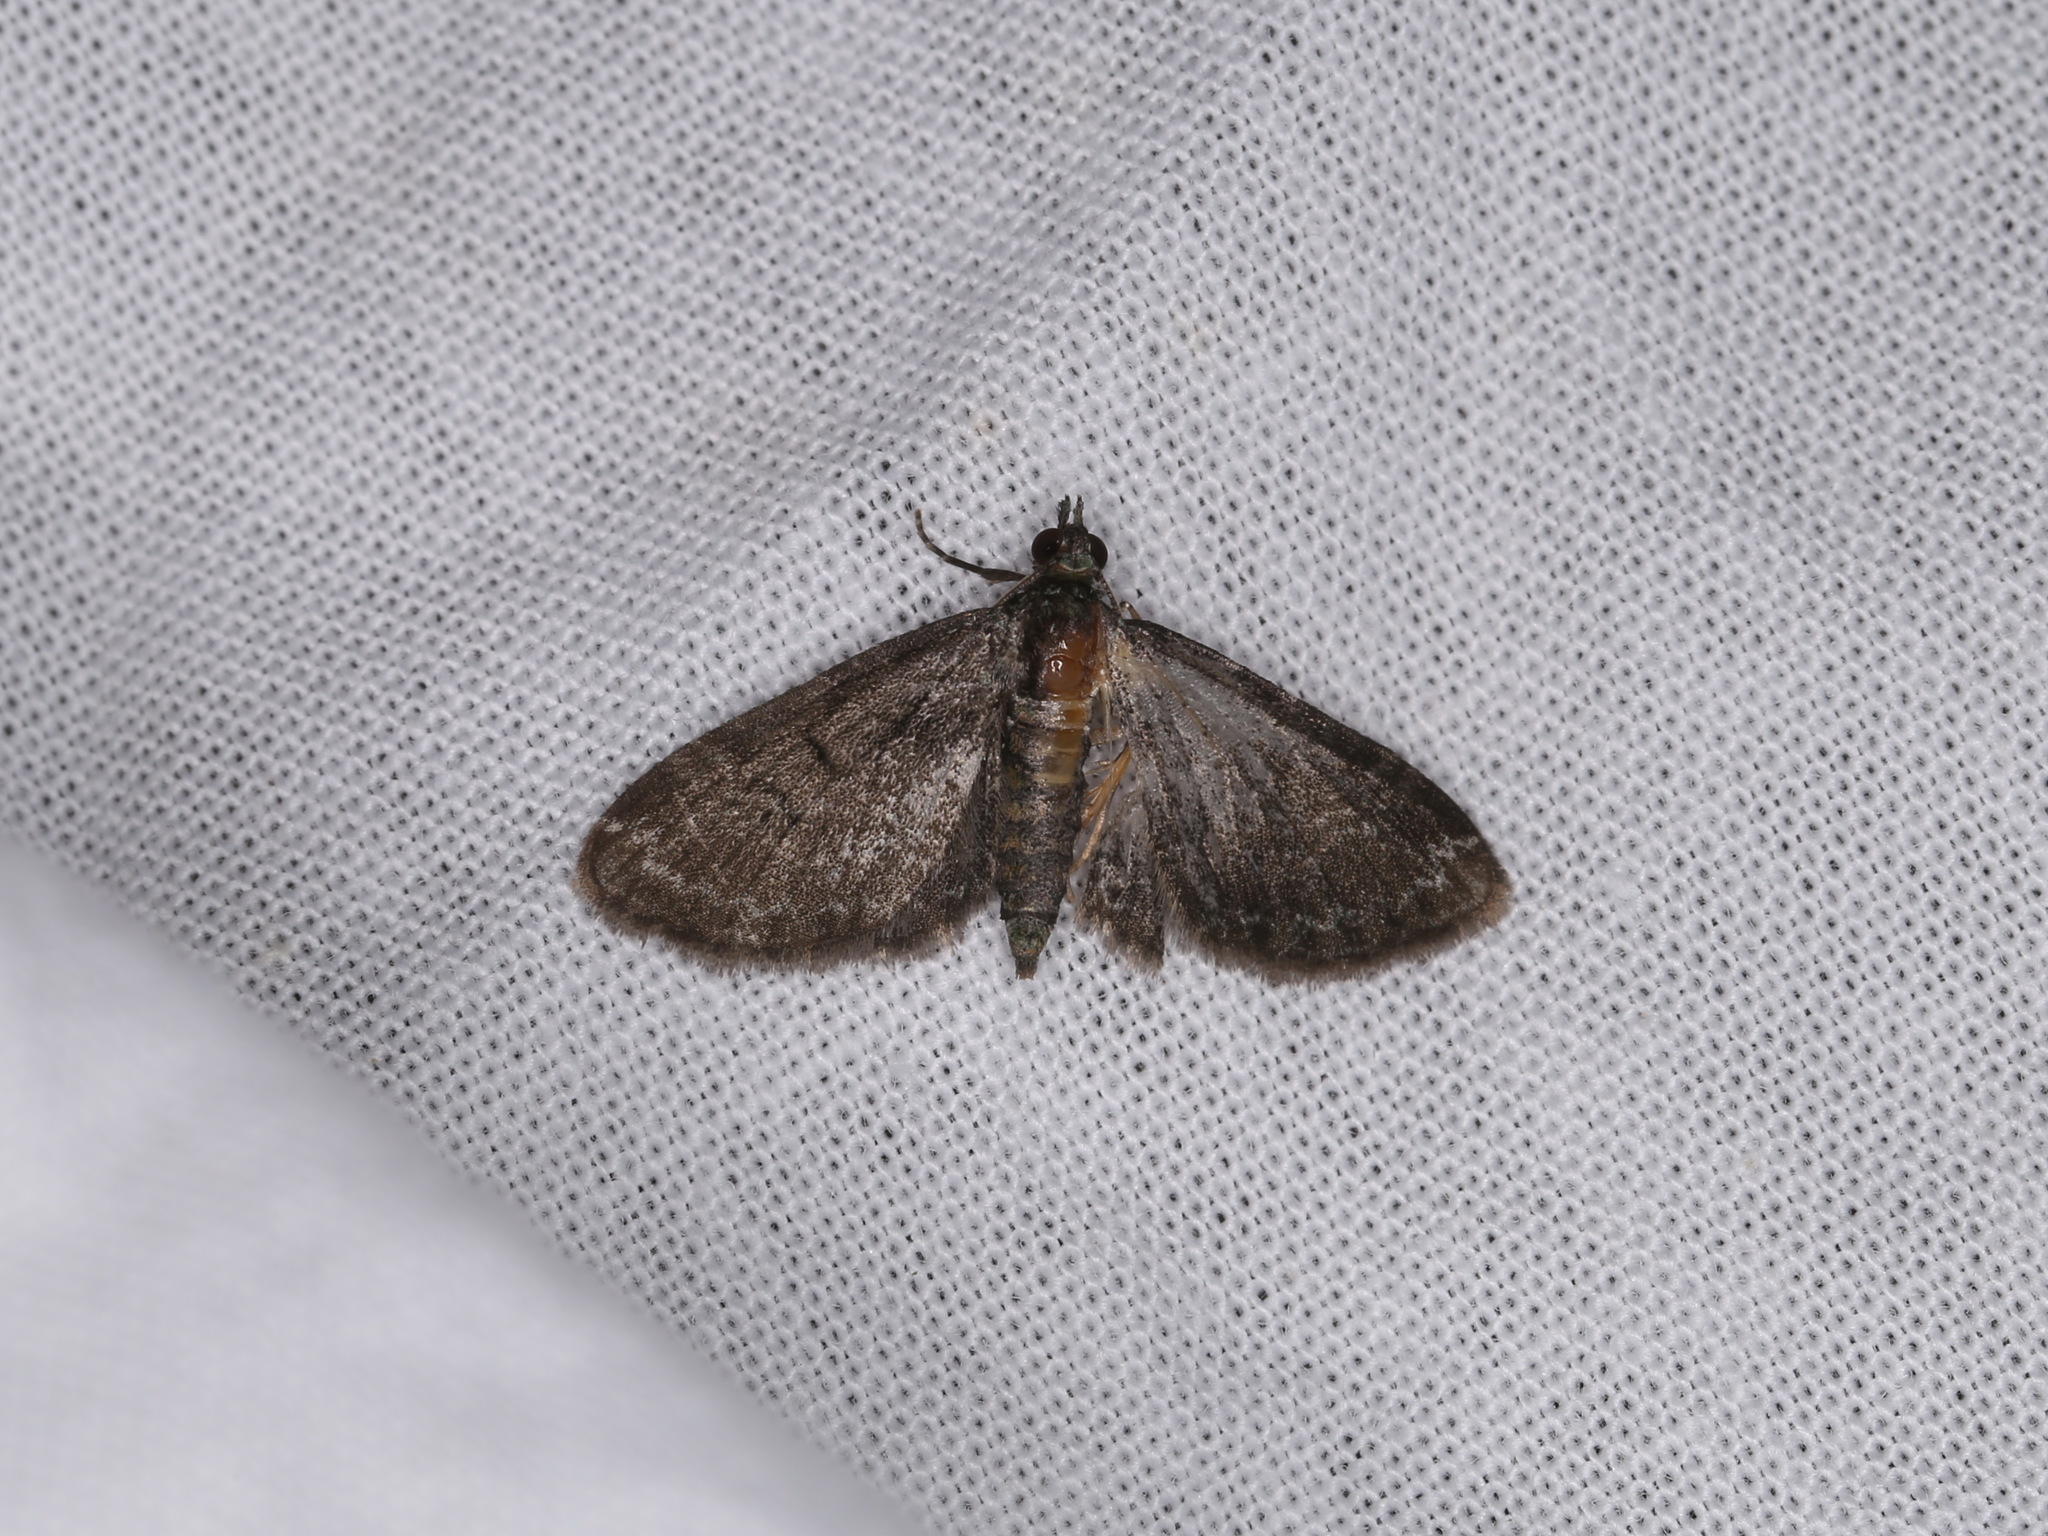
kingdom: Animalia
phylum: Arthropoda
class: Insecta
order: Lepidoptera
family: Geometridae
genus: Pasiphila
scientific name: Pasiphila rectangulata
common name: Green pug
